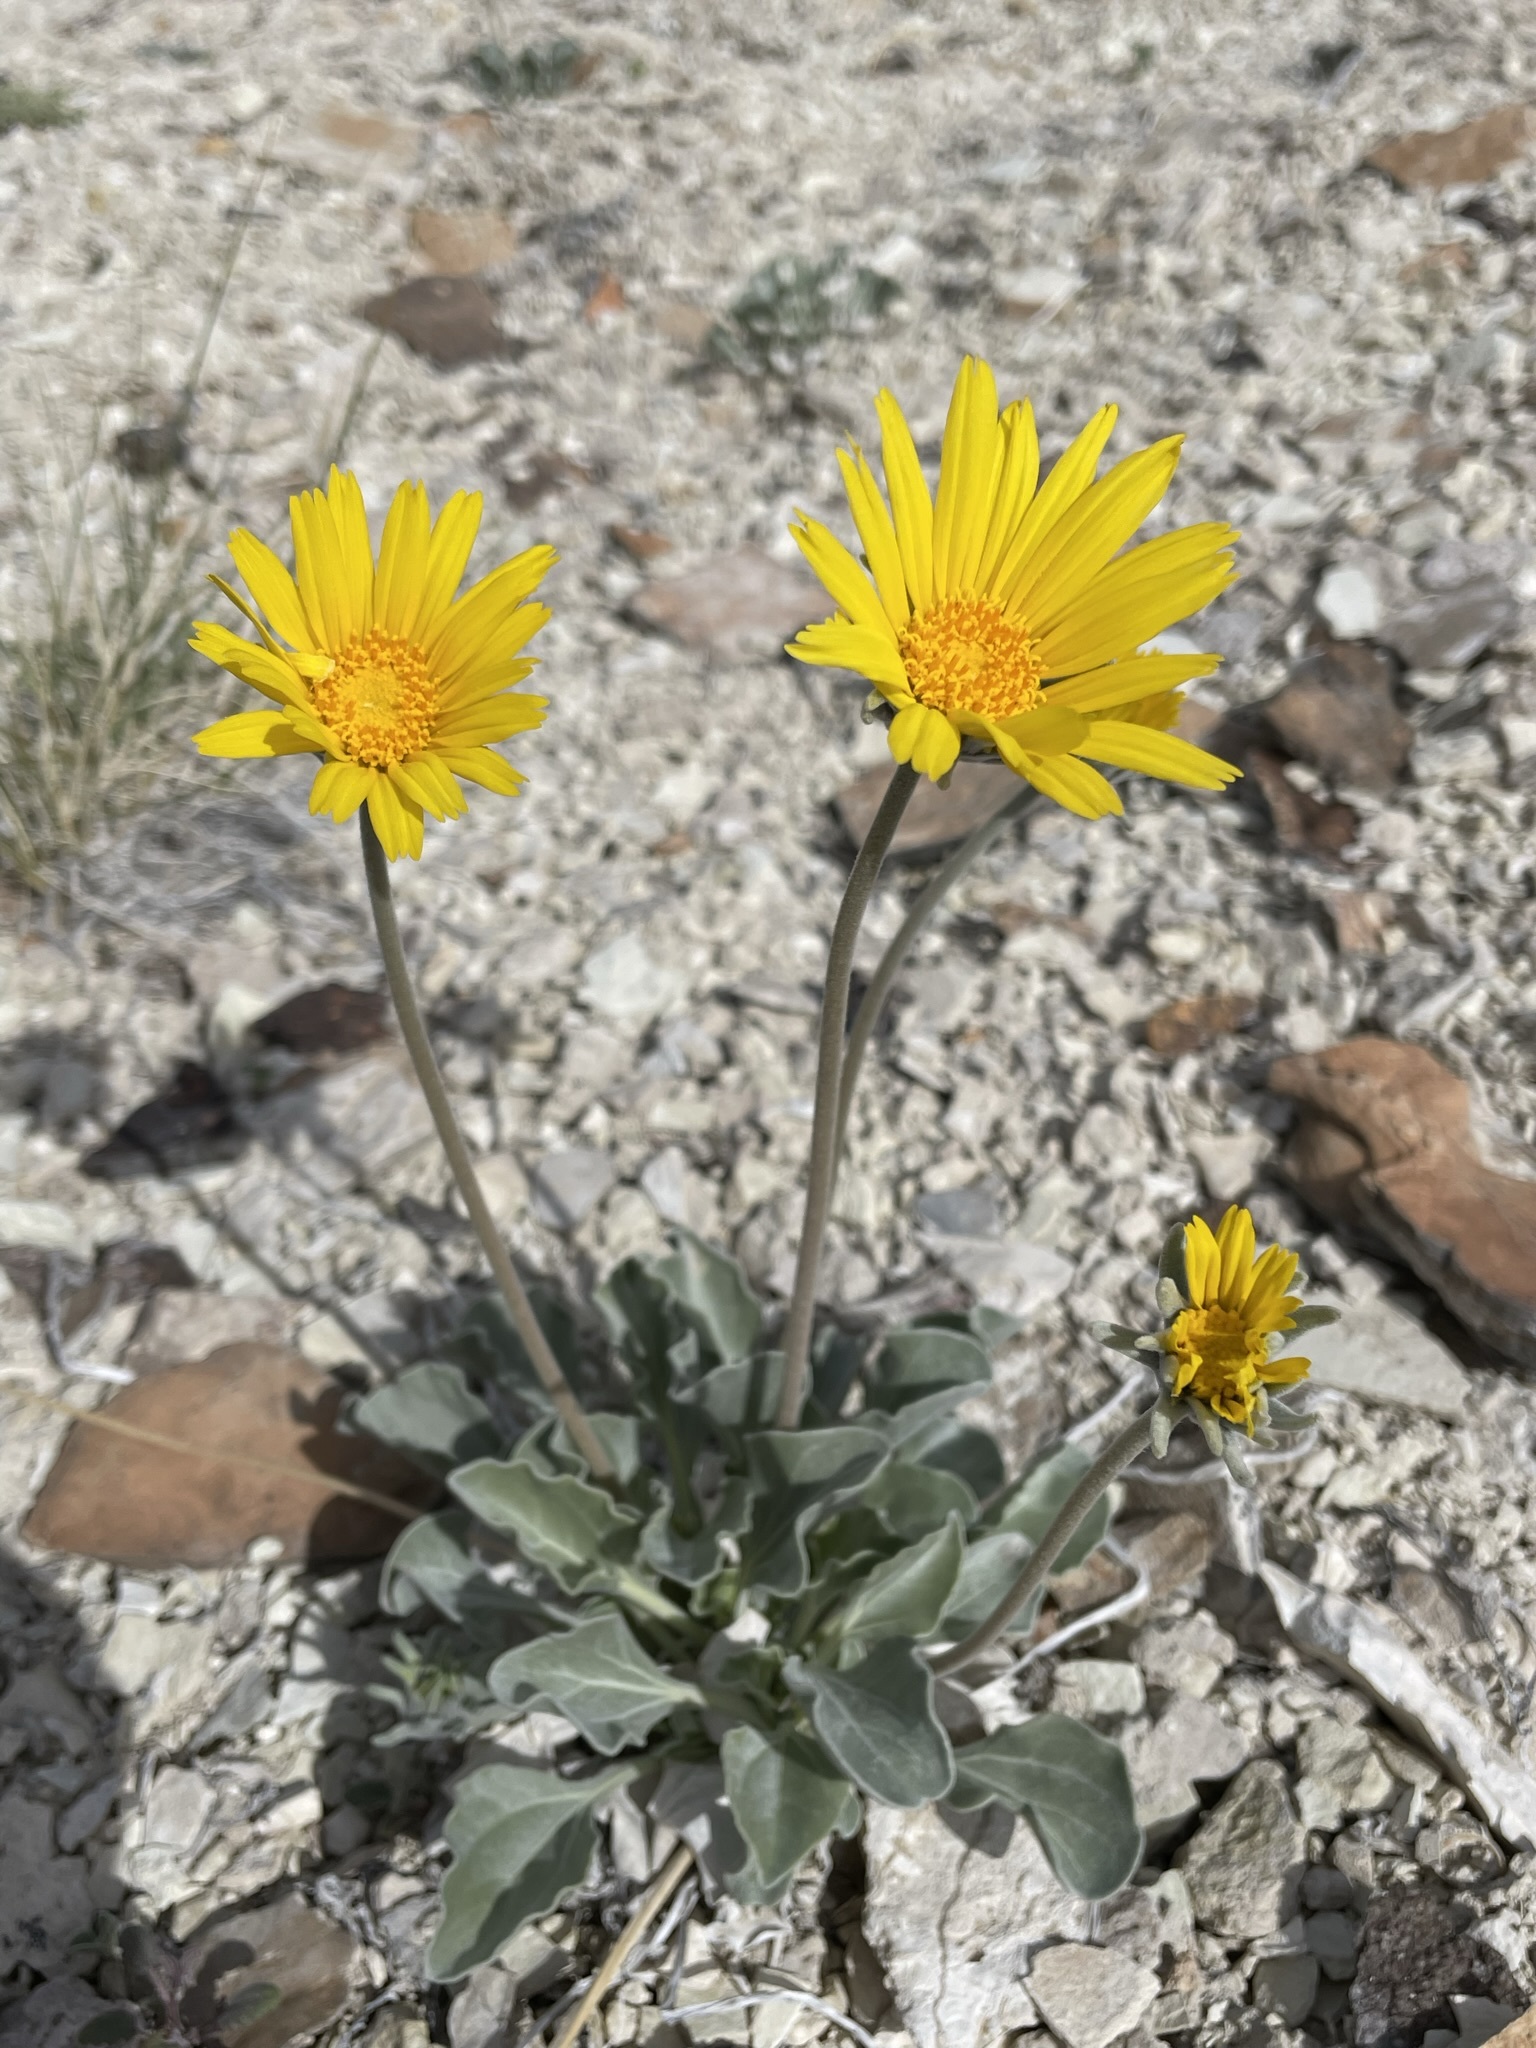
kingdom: Plantae
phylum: Tracheophyta
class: Magnoliopsida
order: Asterales
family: Asteraceae
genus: Enceliopsis
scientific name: Enceliopsis nudicaulis
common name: Naked-stem daisy
